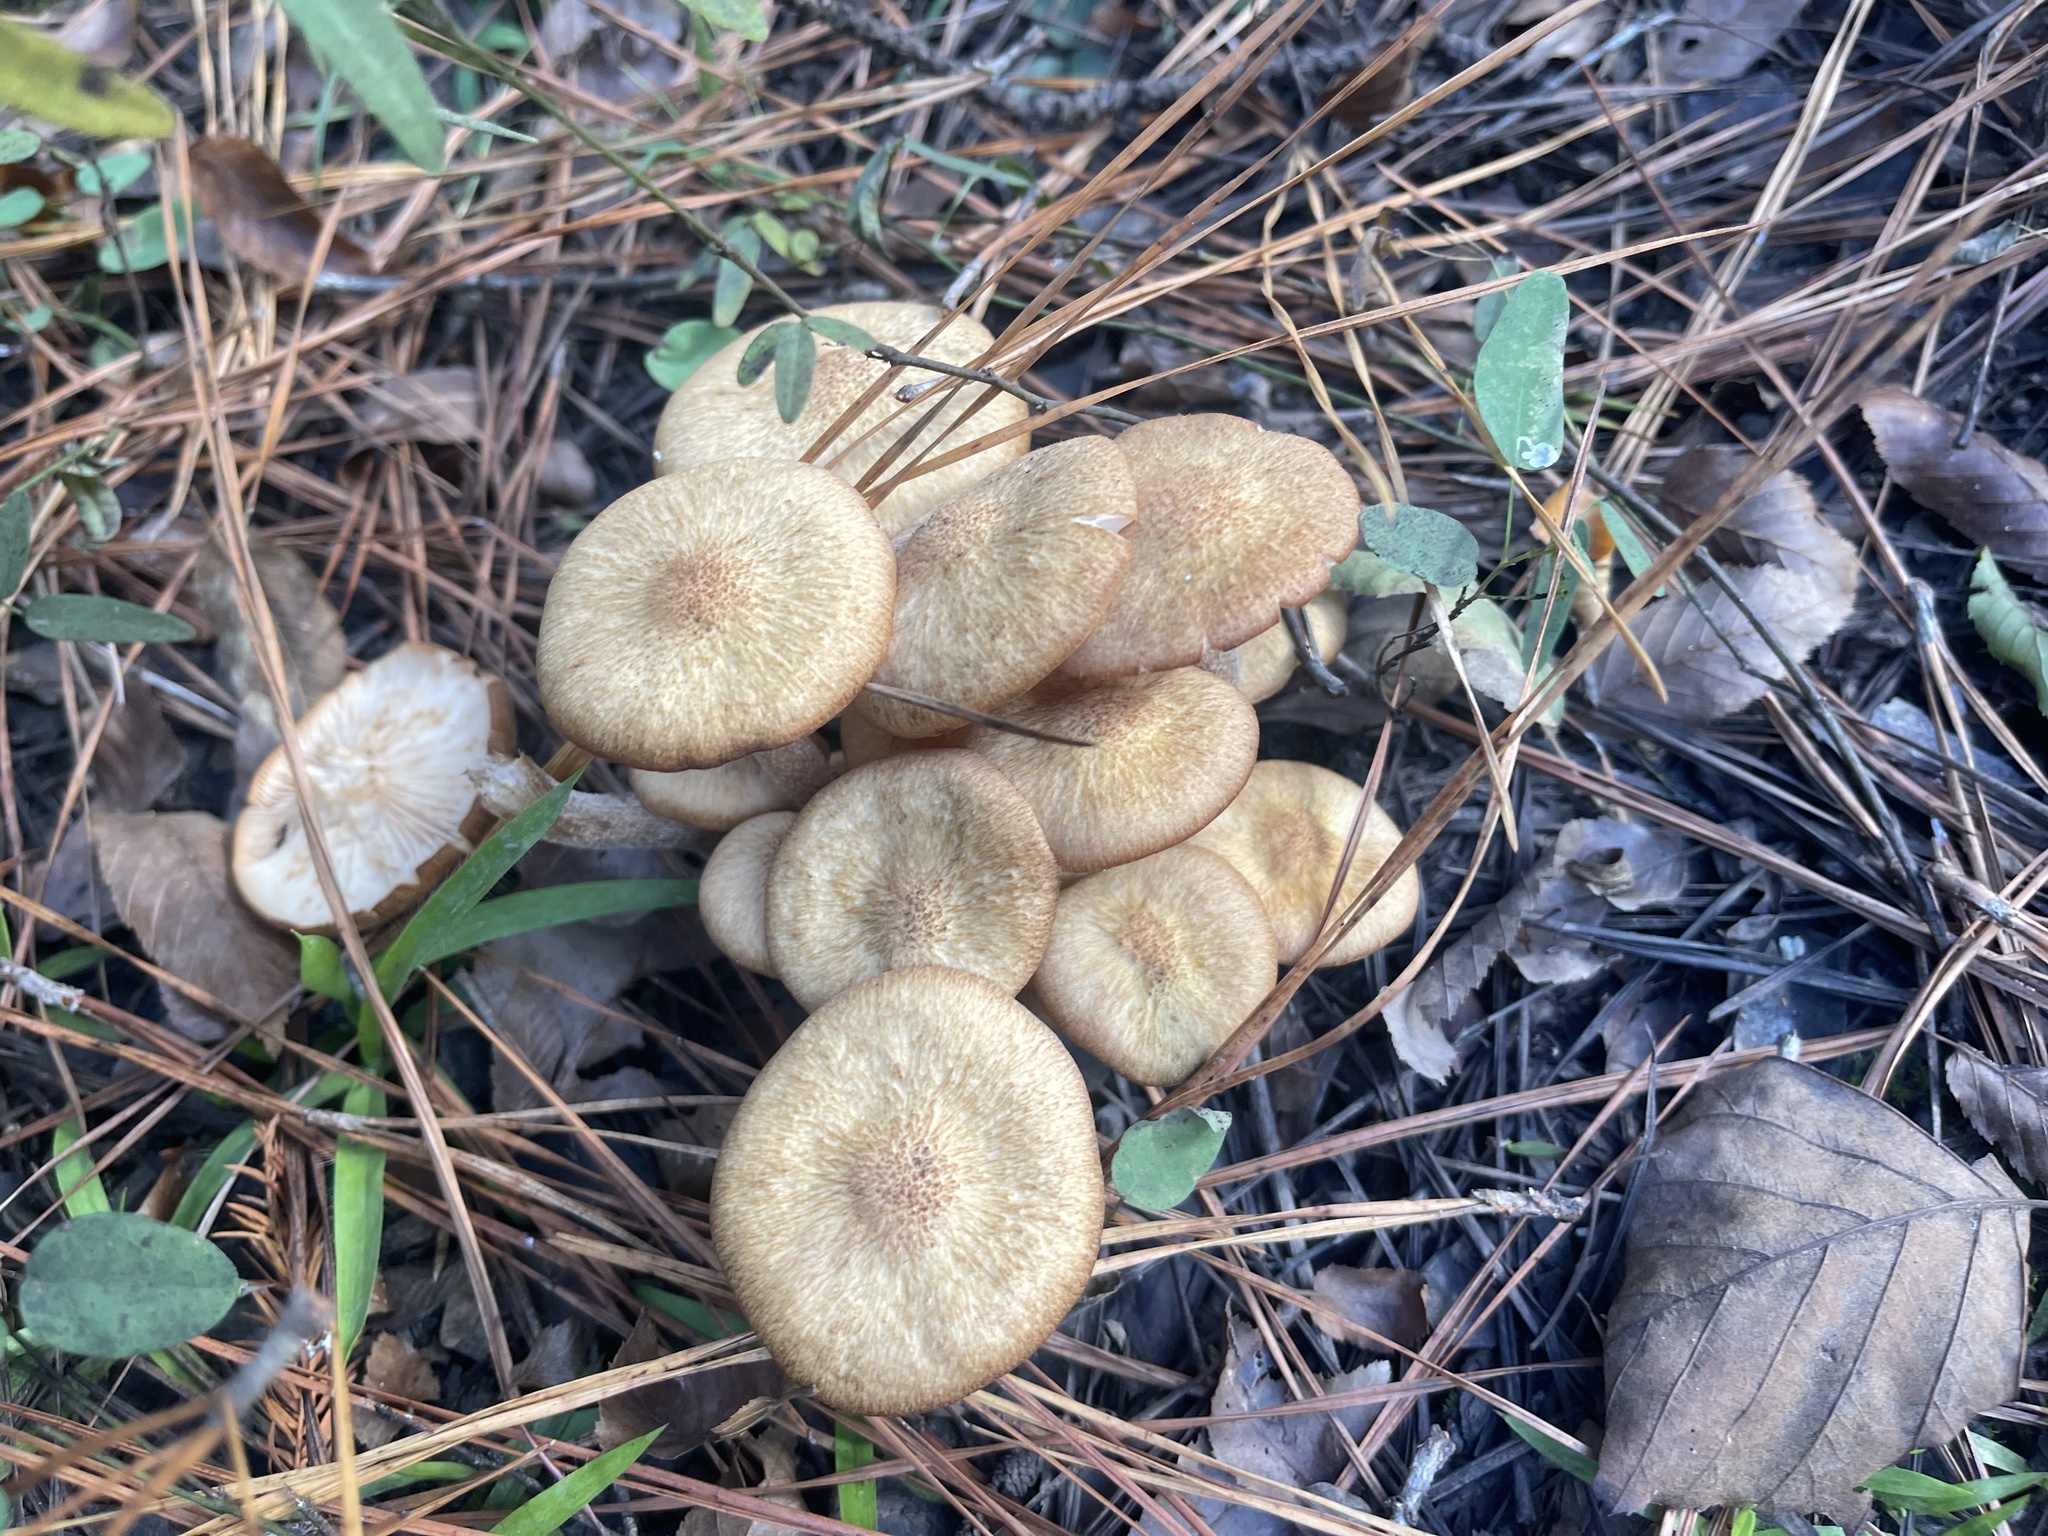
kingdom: Fungi
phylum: Basidiomycota
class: Agaricomycetes
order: Agaricales
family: Physalacriaceae
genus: Desarmillaria
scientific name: Desarmillaria caespitosa
